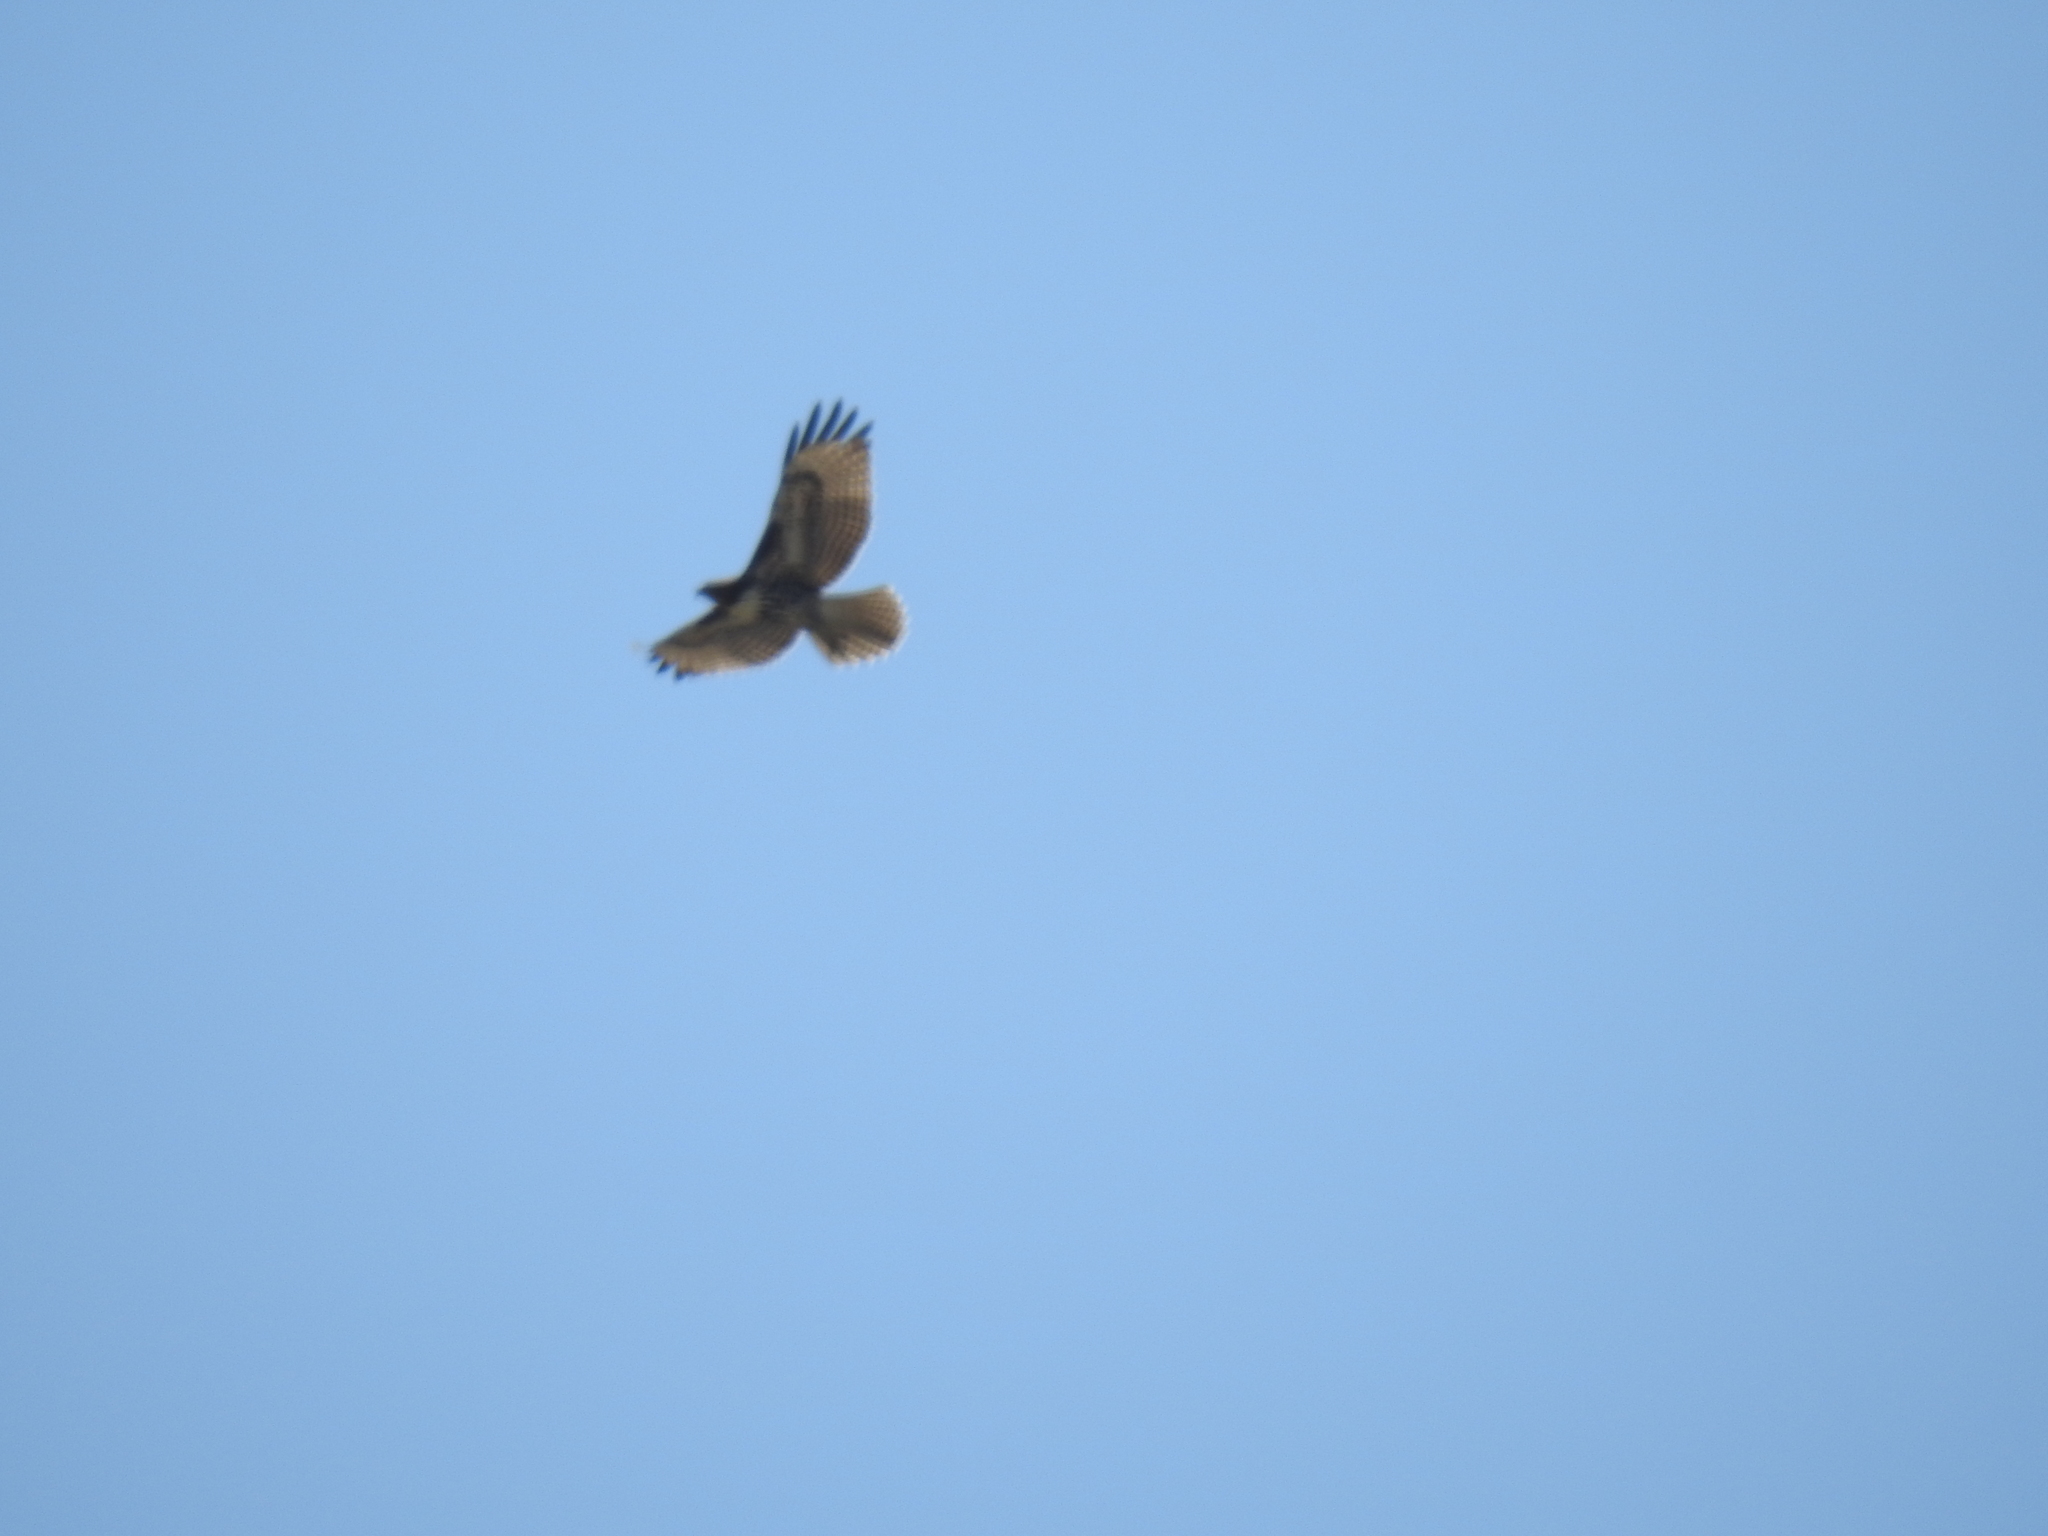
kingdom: Animalia
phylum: Chordata
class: Aves
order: Accipitriformes
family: Accipitridae
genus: Buteo
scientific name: Buteo jamaicensis
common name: Red-tailed hawk
